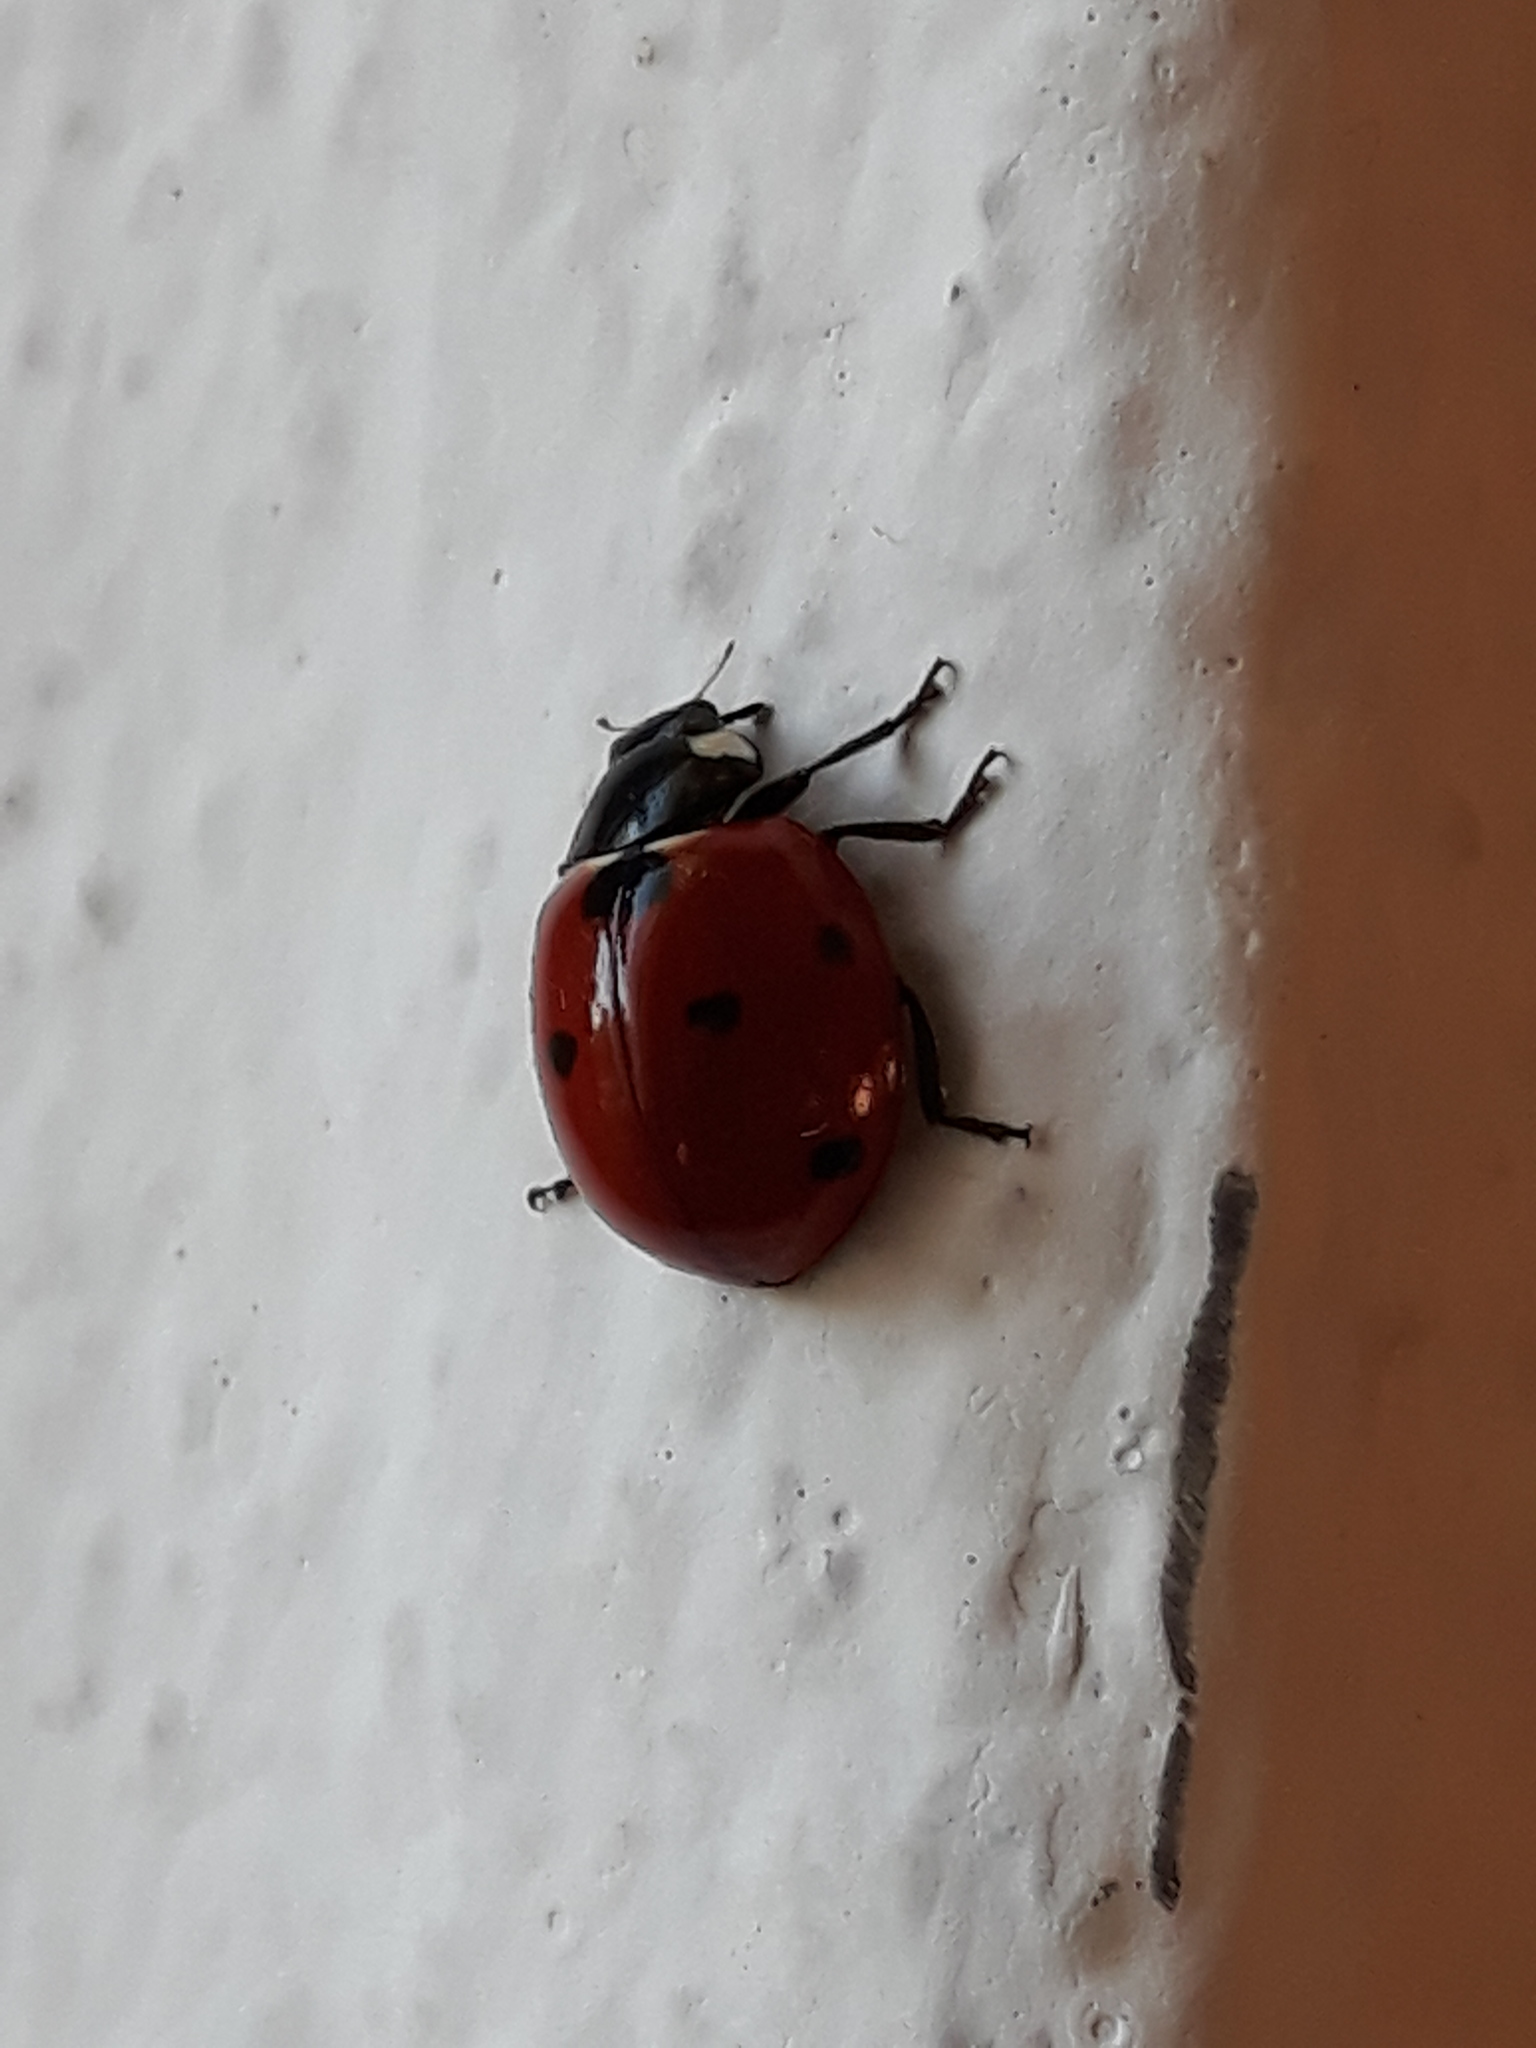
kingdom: Animalia
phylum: Arthropoda
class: Insecta
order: Coleoptera
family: Coccinellidae
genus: Coccinella
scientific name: Coccinella septempunctata
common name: Sevenspotted lady beetle
